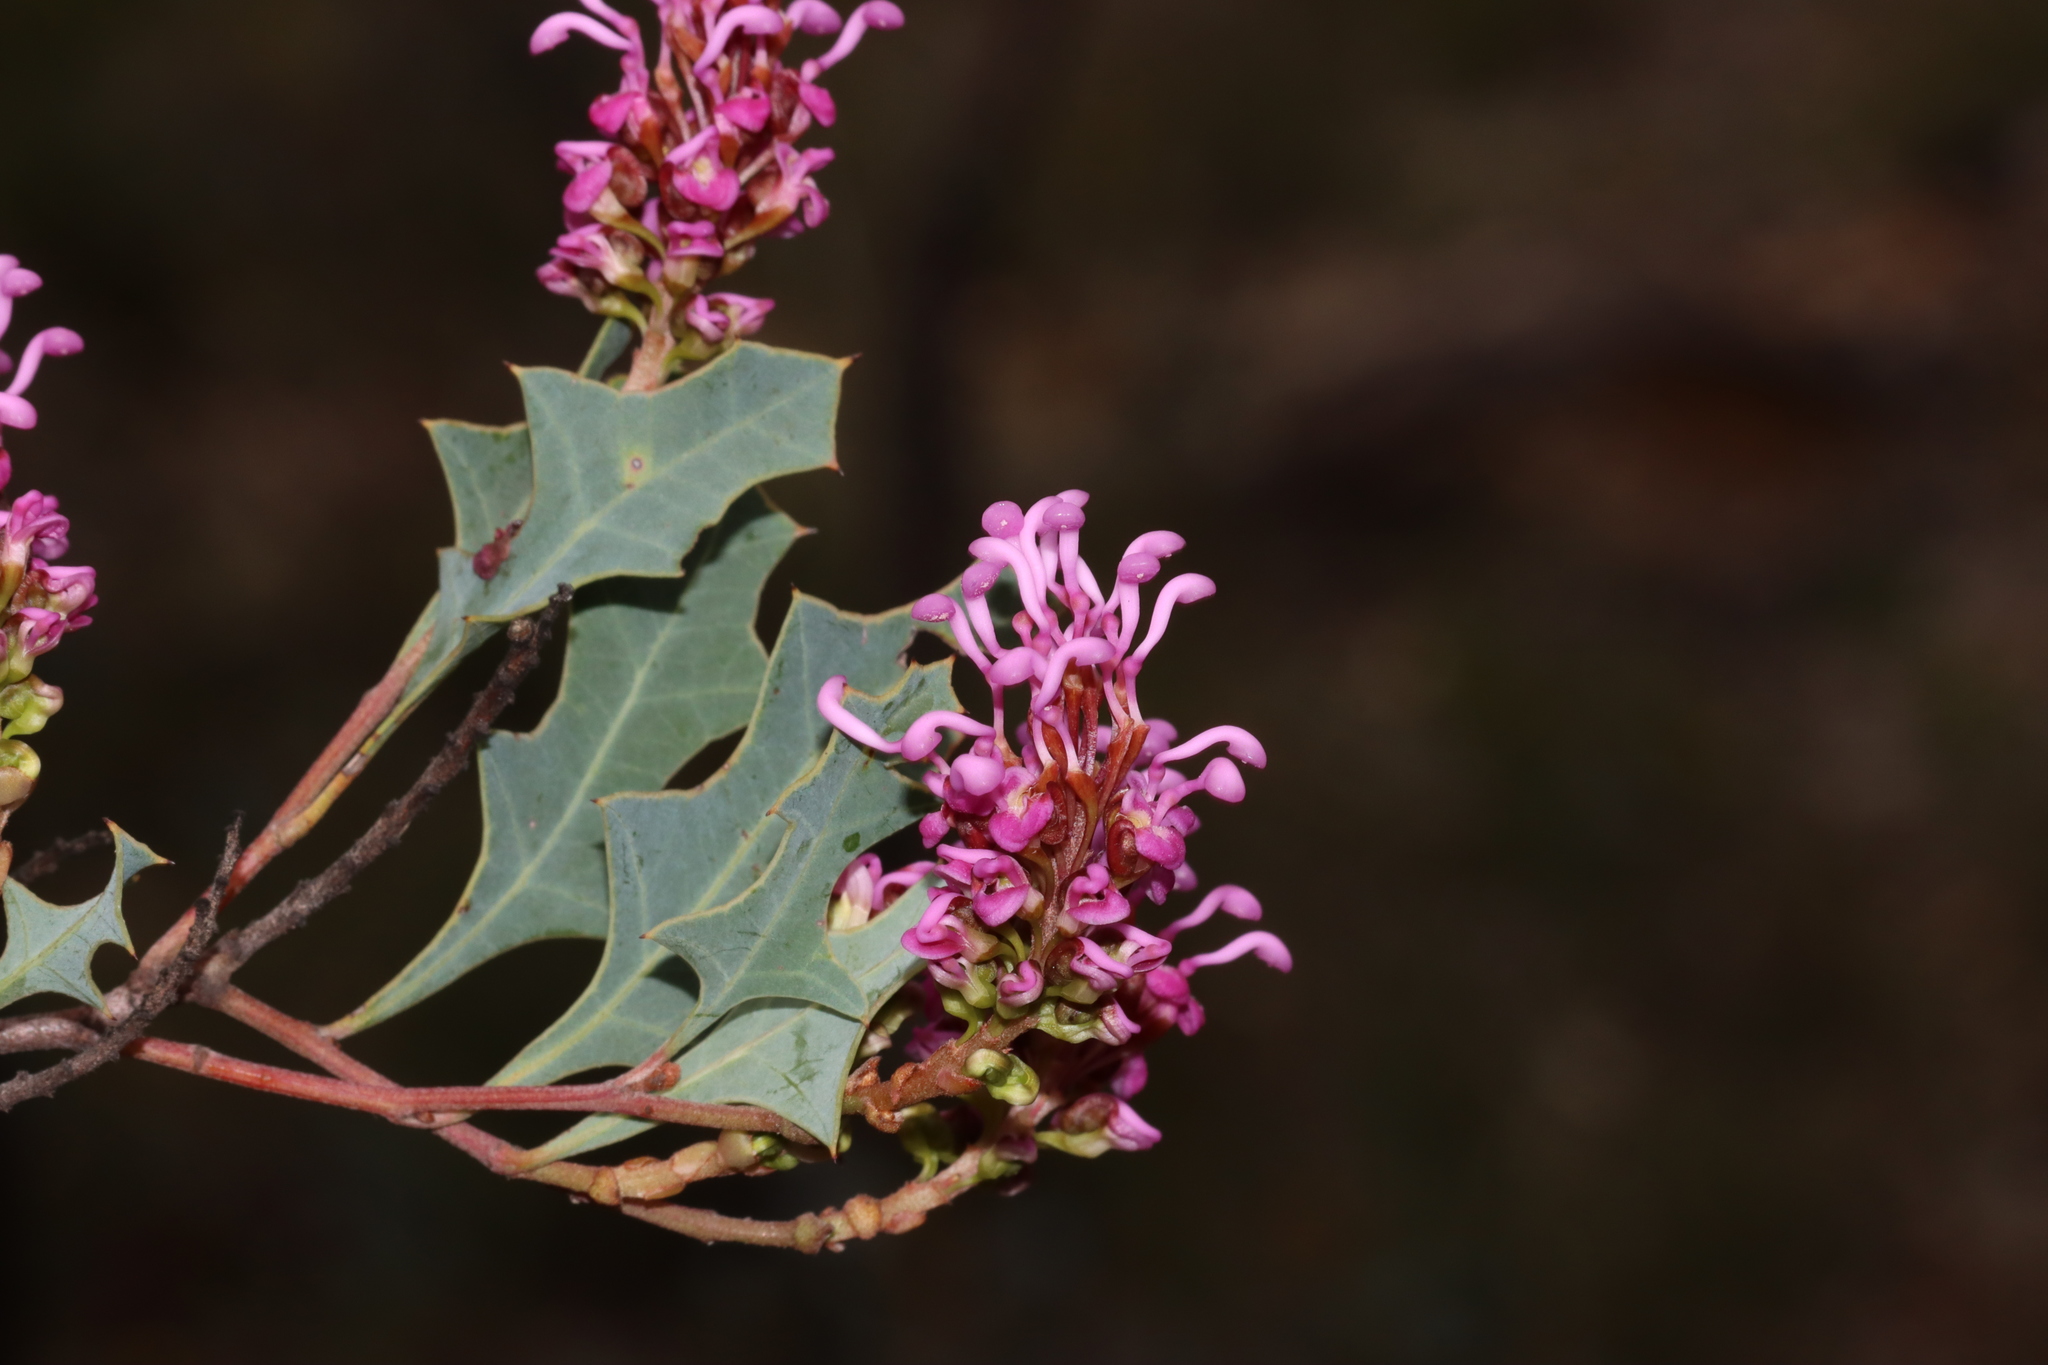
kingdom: Plantae
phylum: Tracheophyta
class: Magnoliopsida
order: Proteales
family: Proteaceae
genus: Grevillea
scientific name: Grevillea quercifolia
